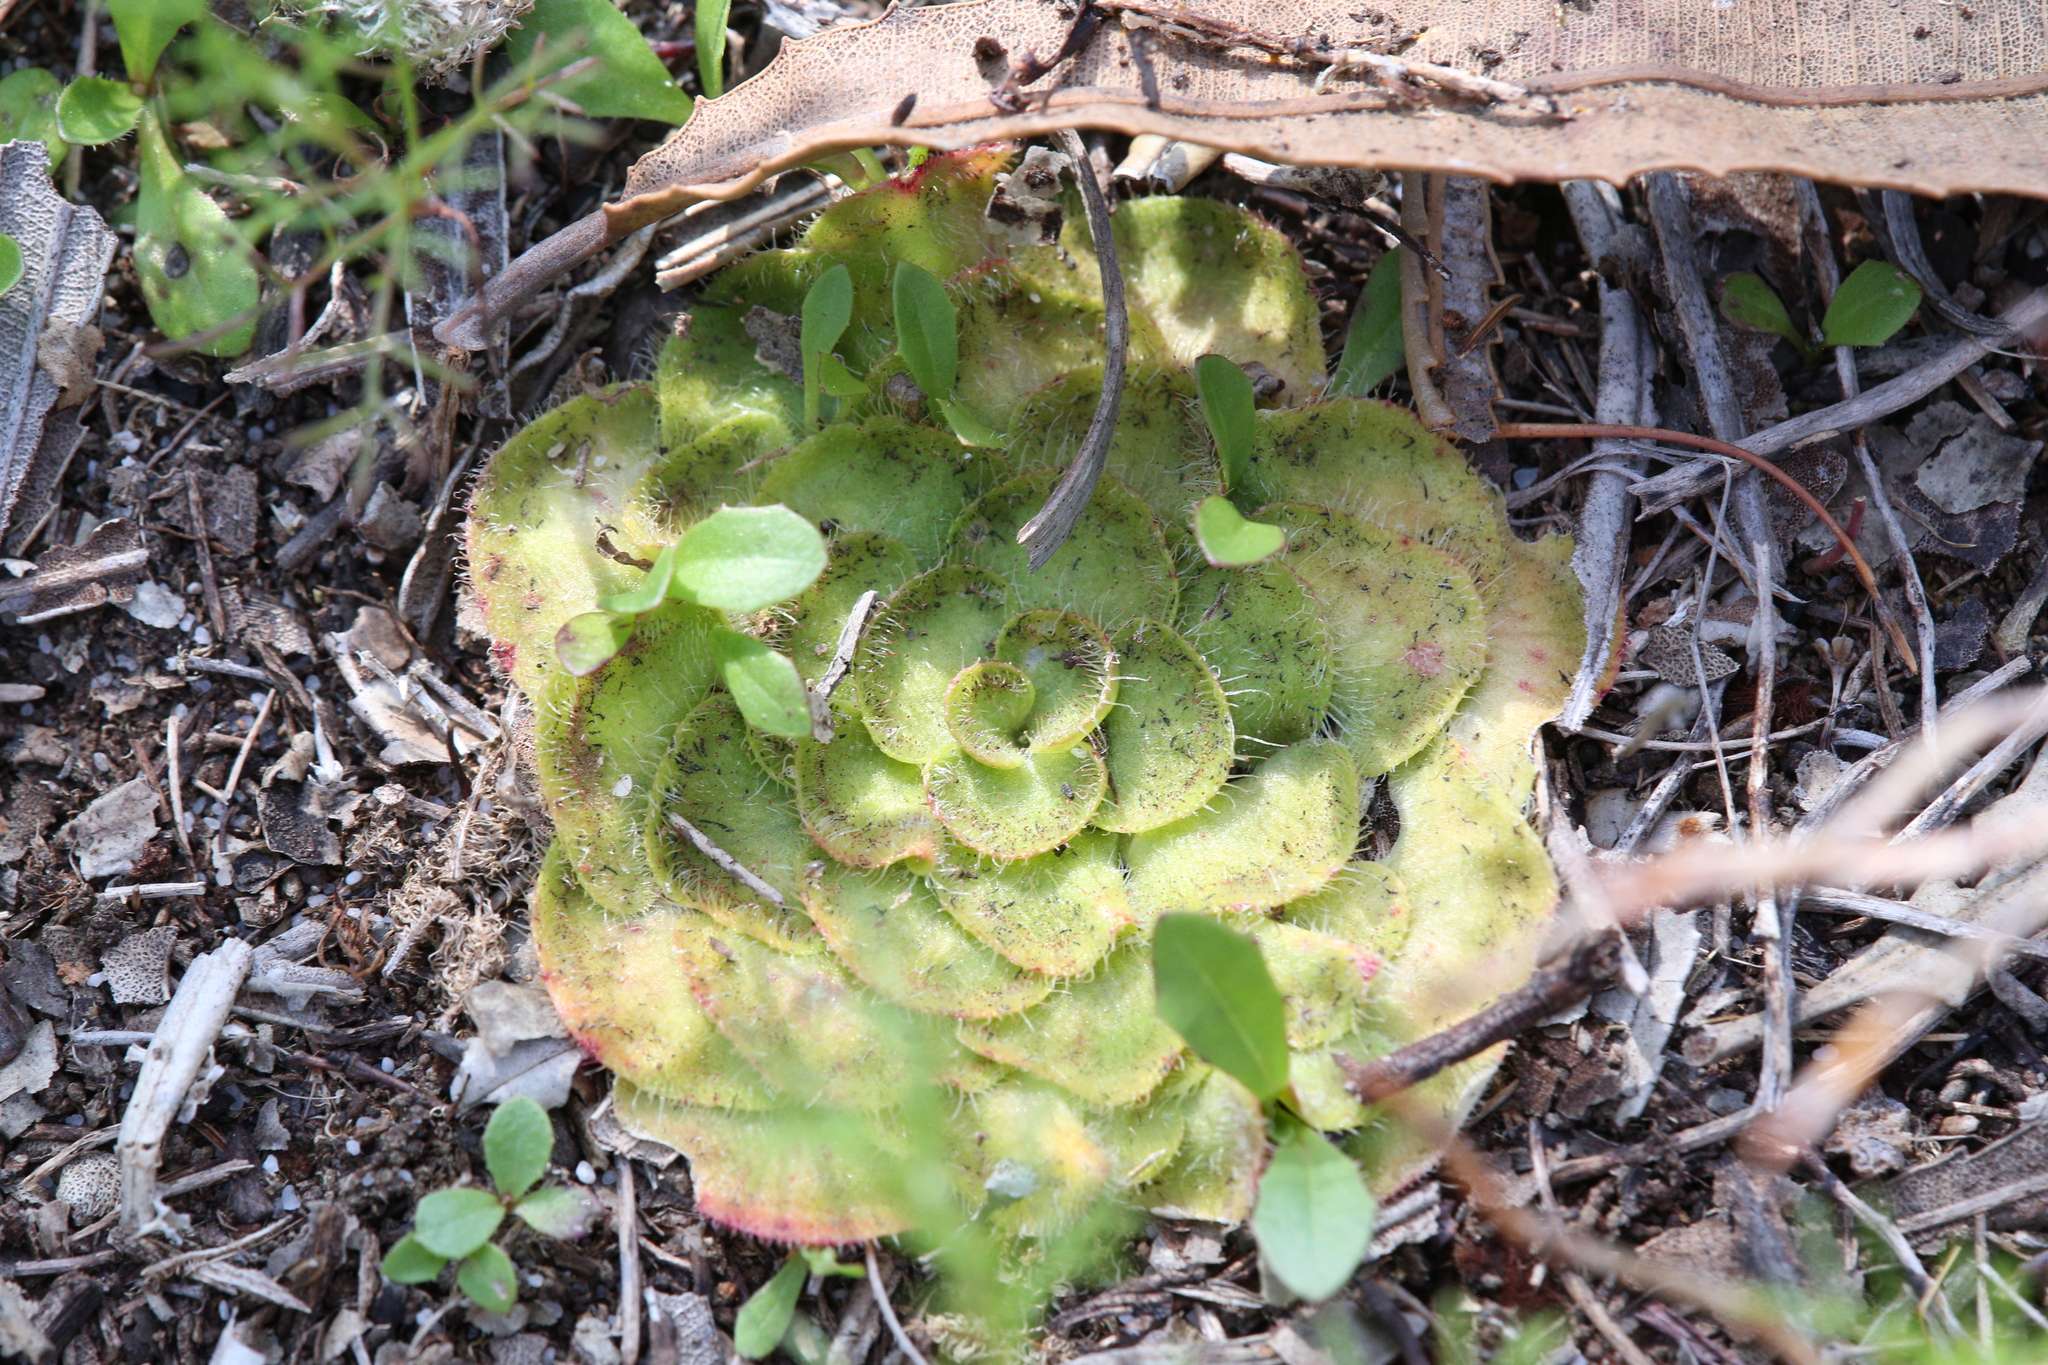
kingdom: Plantae
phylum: Tracheophyta
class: Magnoliopsida
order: Caryophyllales
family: Droseraceae
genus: Drosera
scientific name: Drosera zonaria
